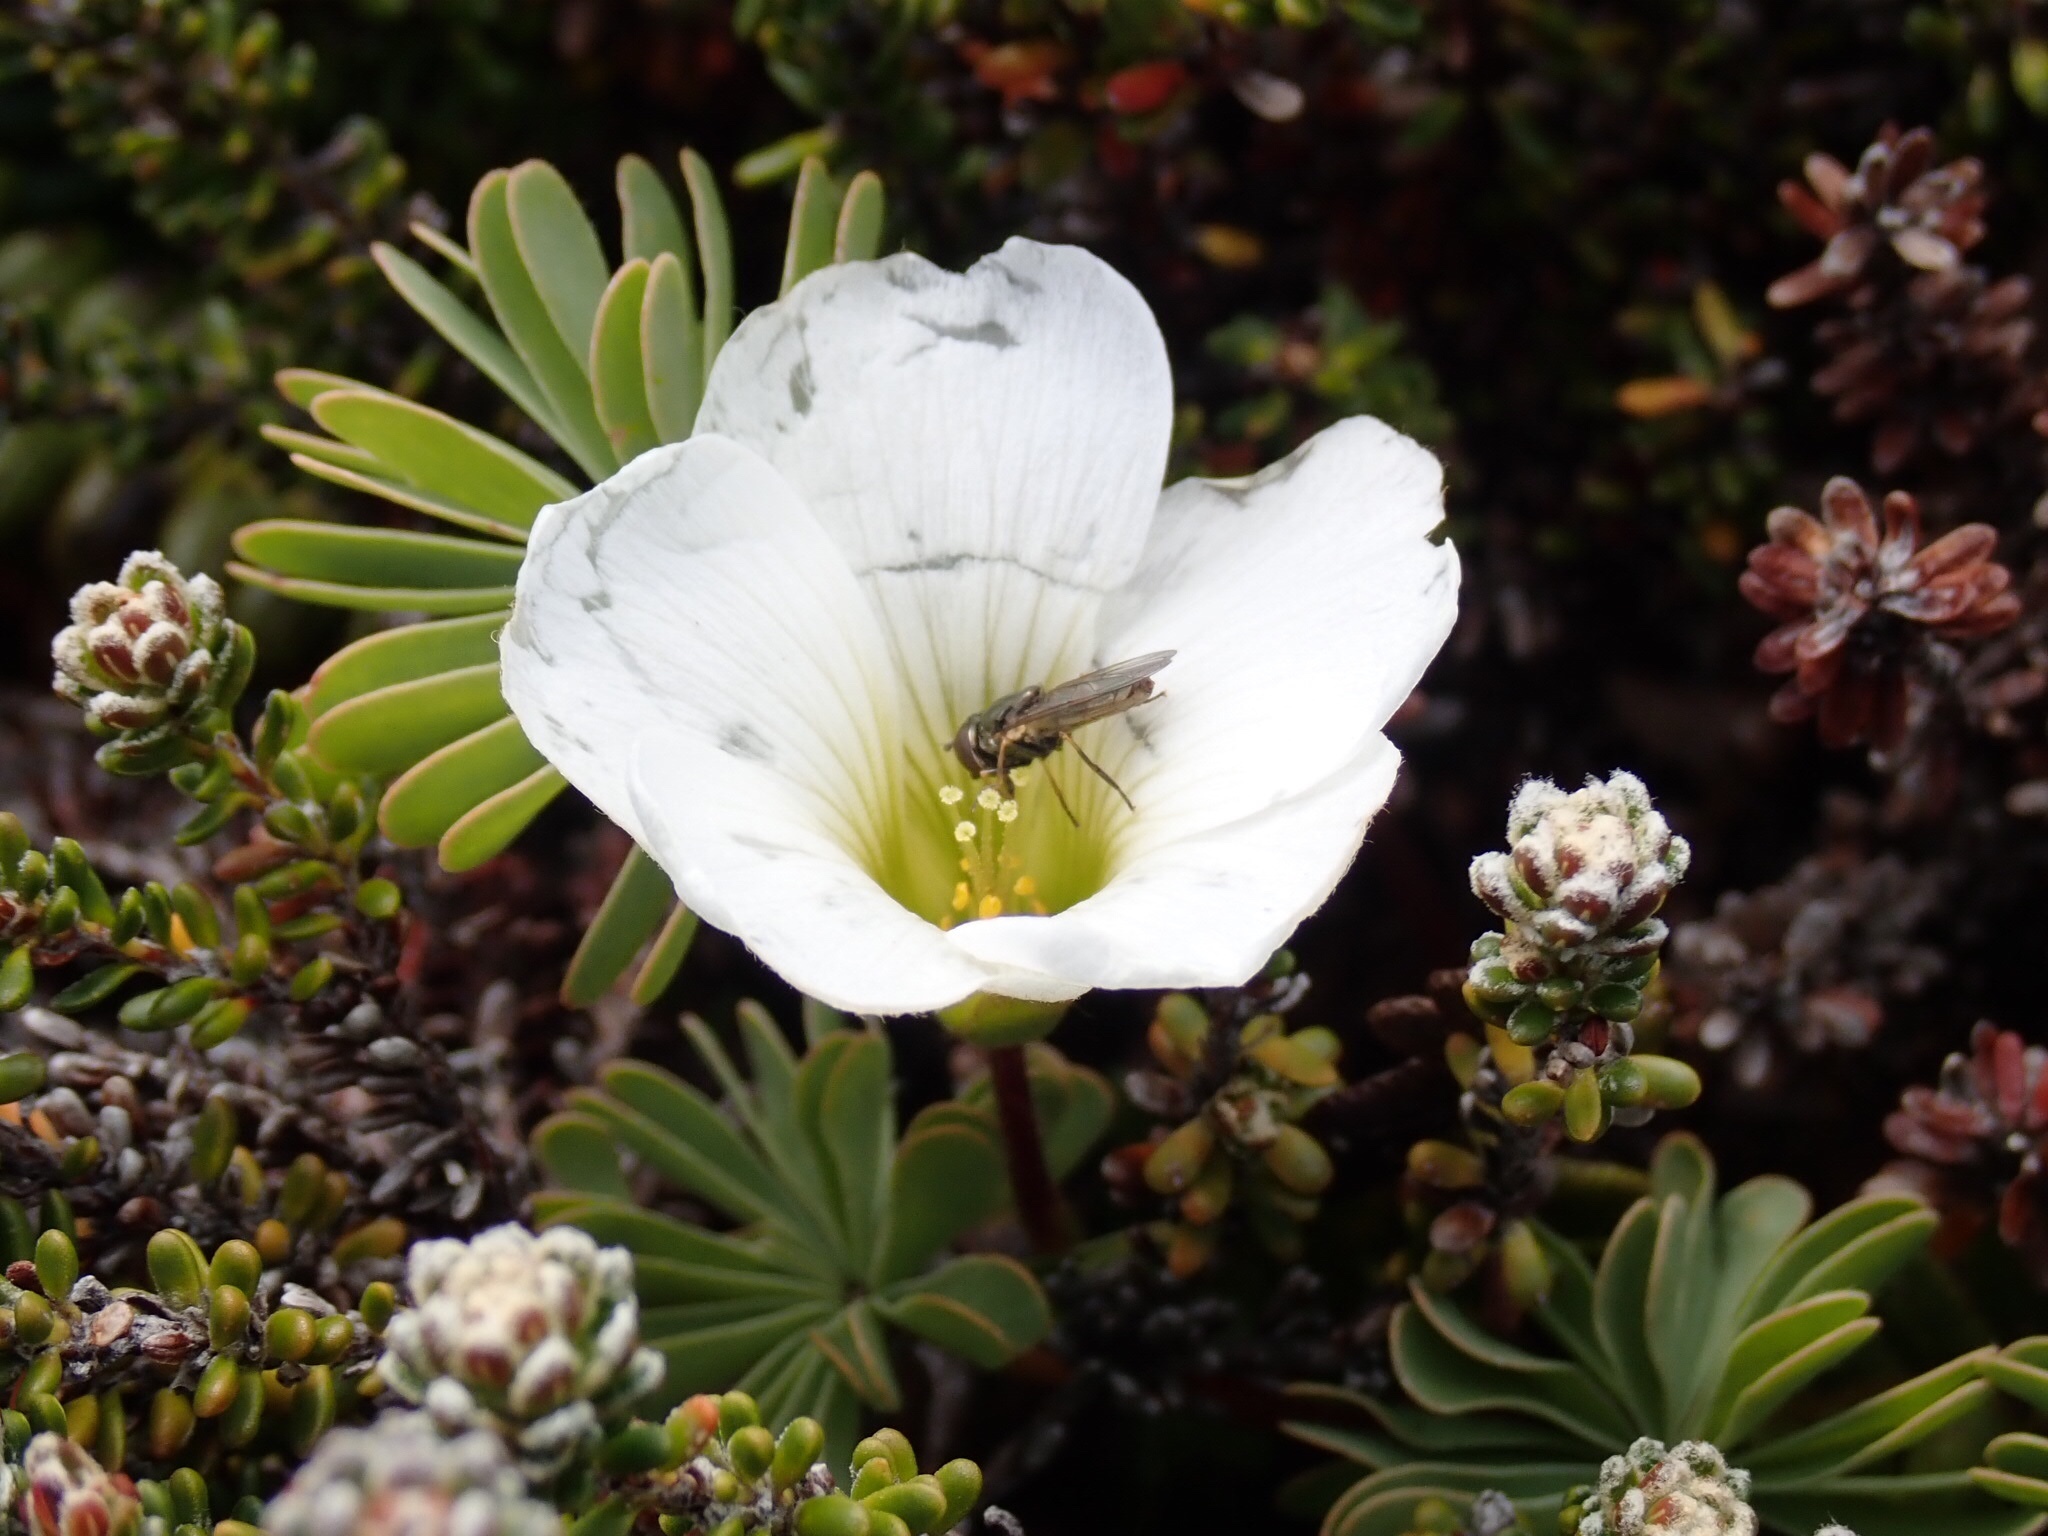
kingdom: Plantae
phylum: Tracheophyta
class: Magnoliopsida
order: Oxalidales
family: Oxalidaceae
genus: Oxalis
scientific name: Oxalis enneaphylla
